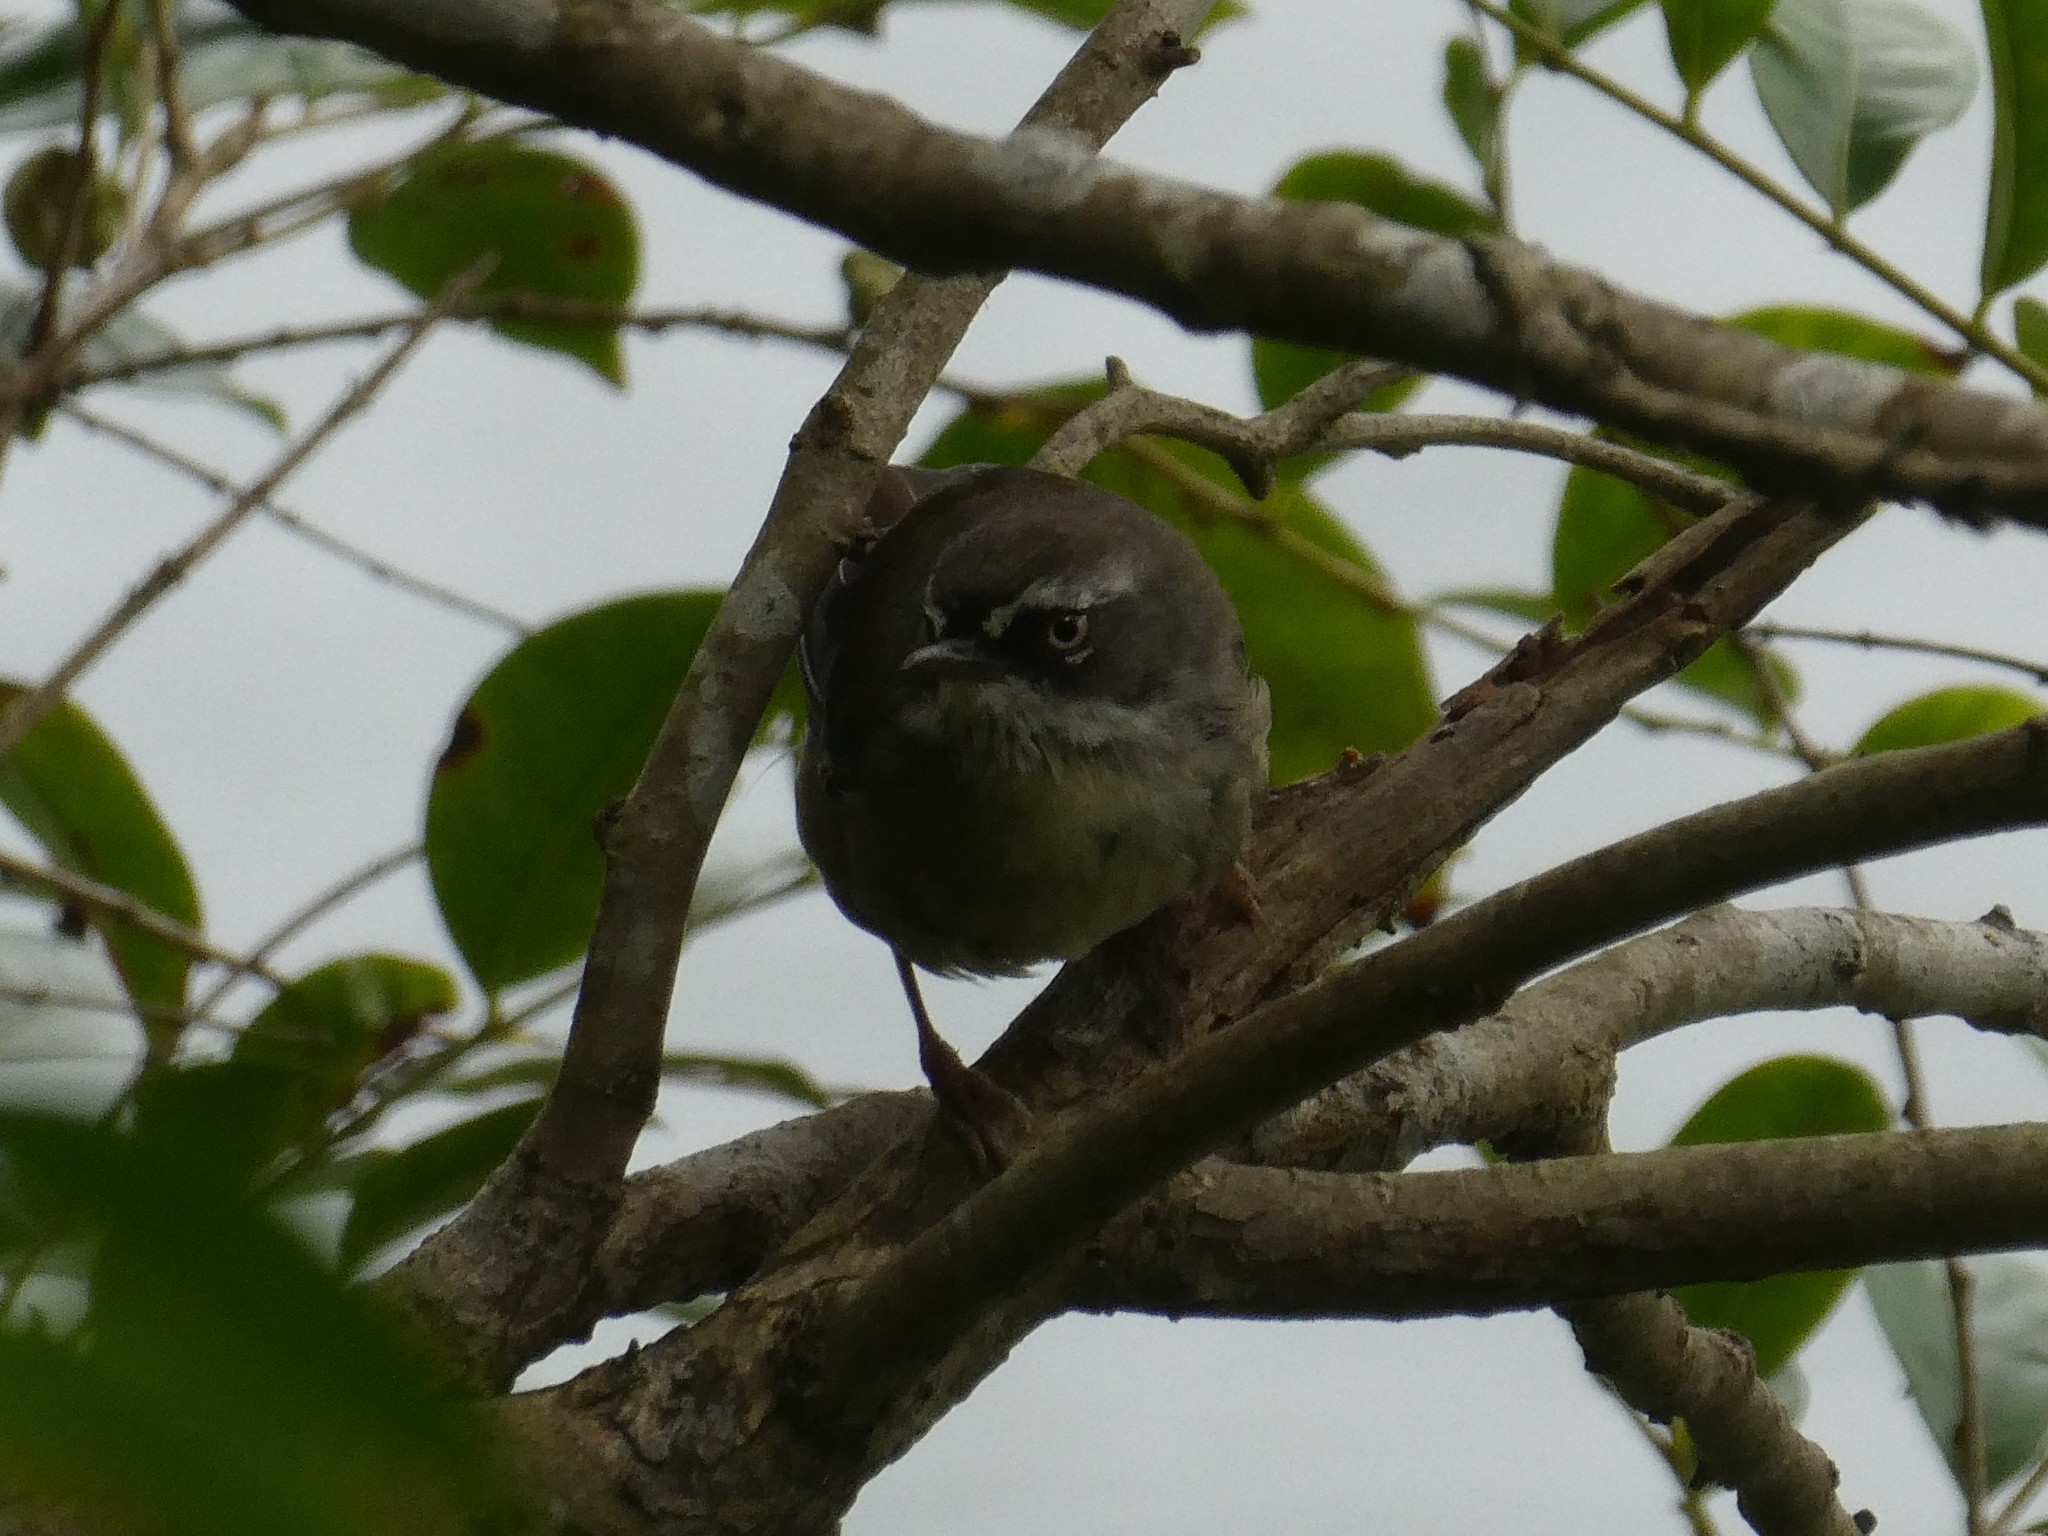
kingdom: Animalia
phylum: Chordata
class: Aves
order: Passeriformes
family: Acanthizidae
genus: Sericornis
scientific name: Sericornis frontalis
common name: White-browed scrubwren
